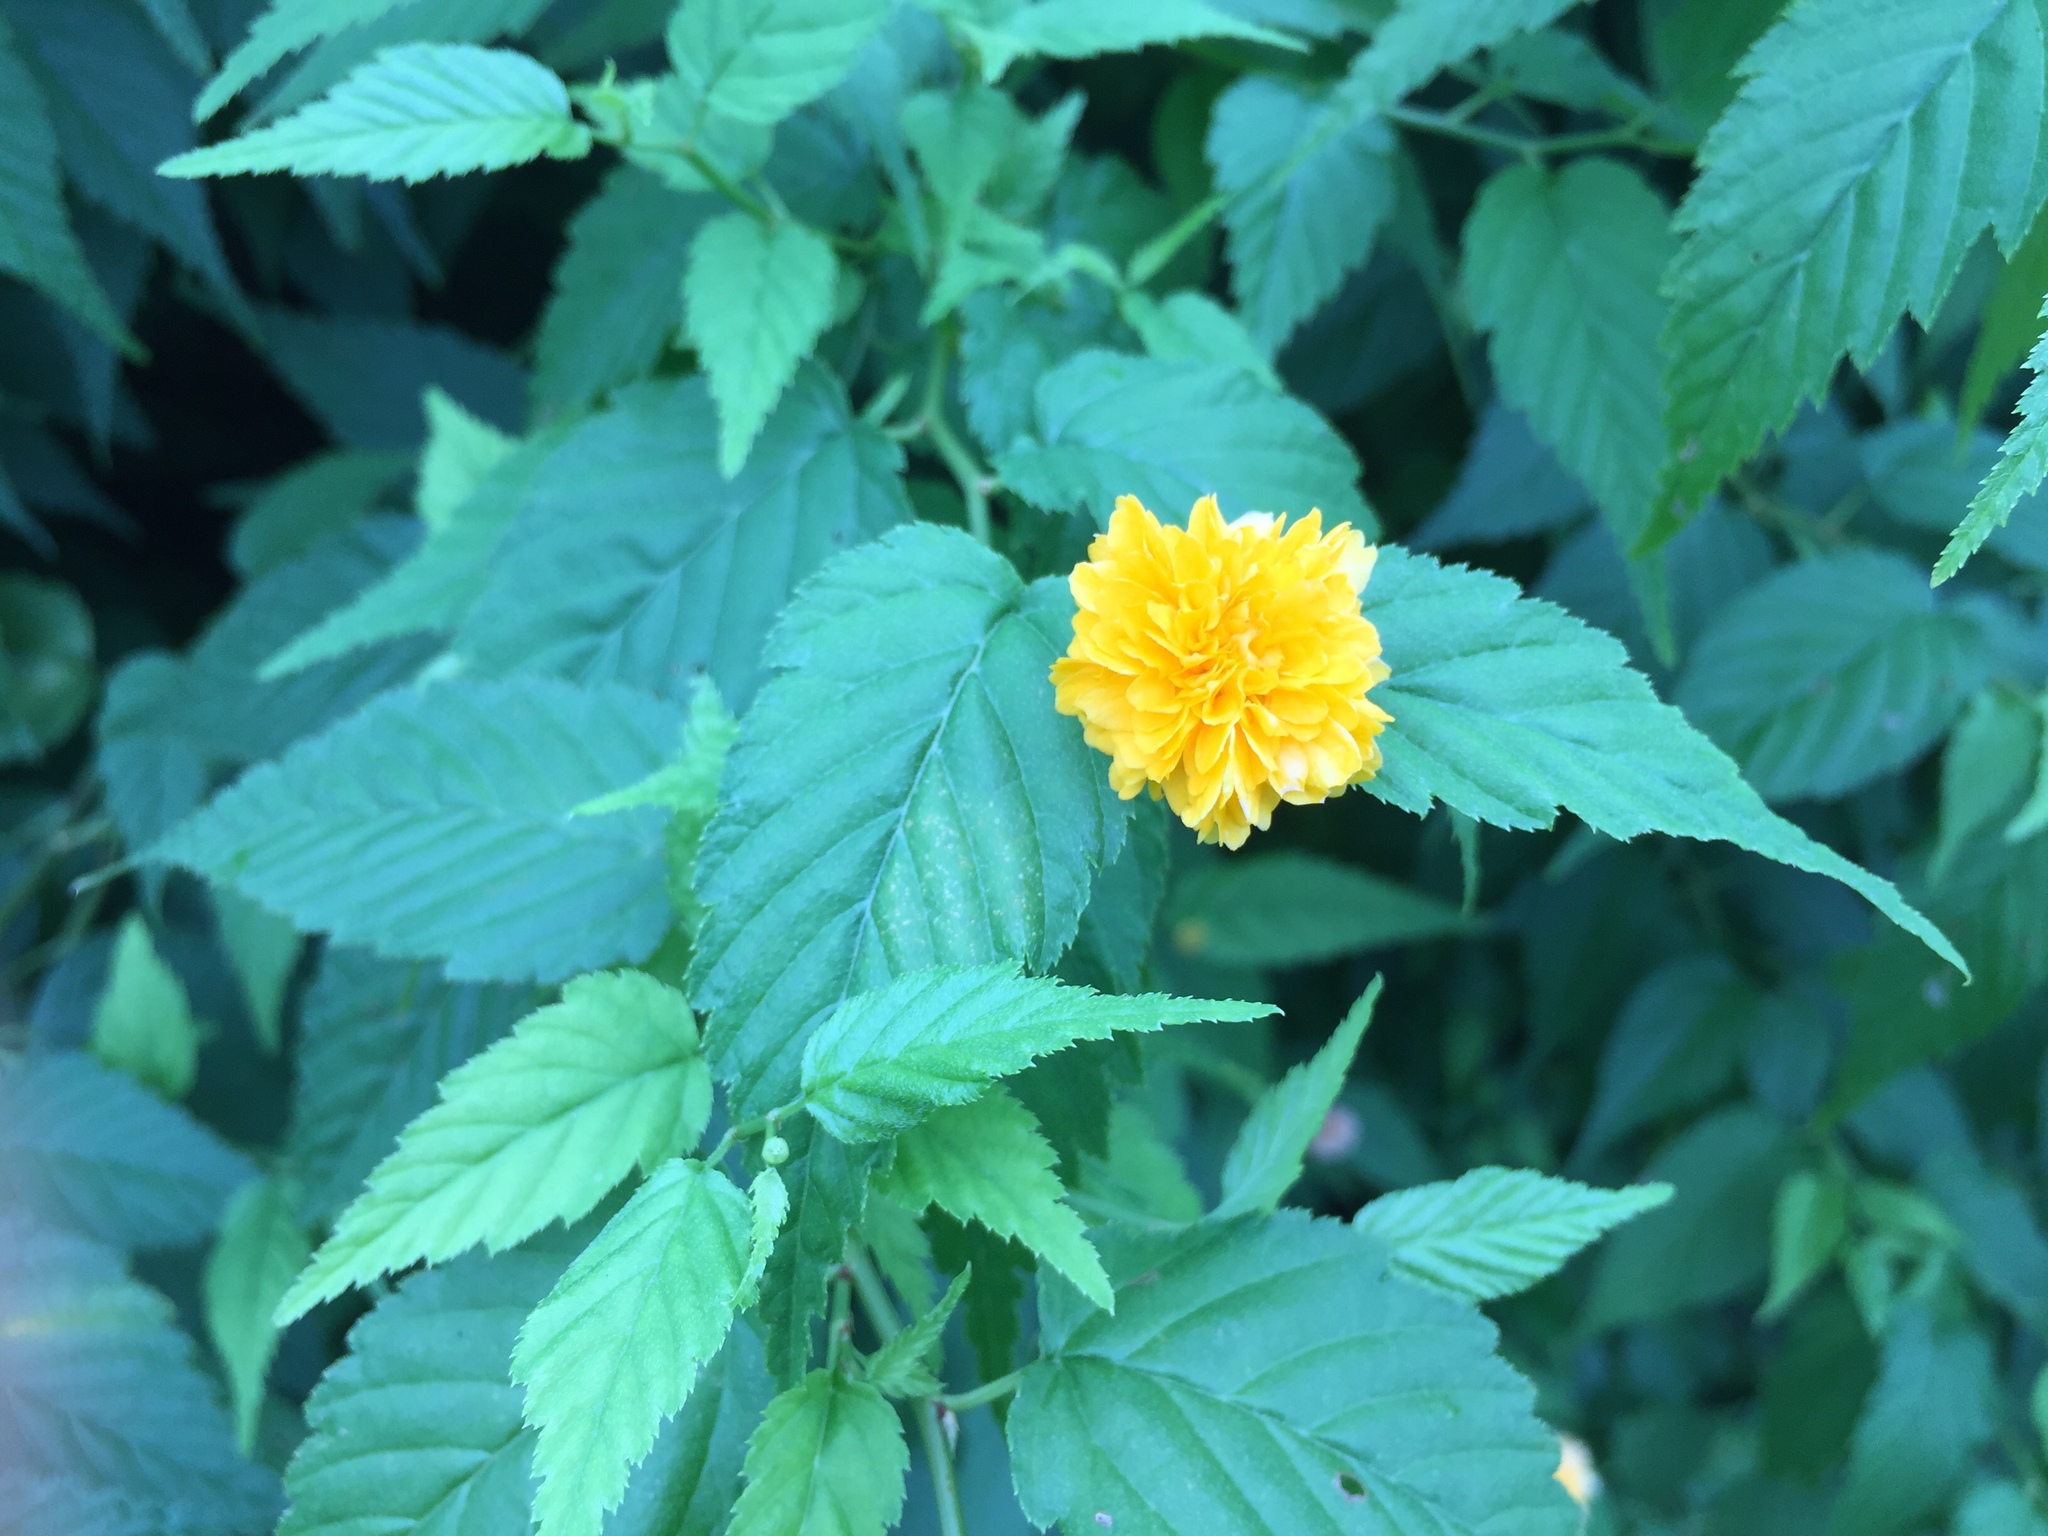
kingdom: Plantae
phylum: Tracheophyta
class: Magnoliopsida
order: Rosales
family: Rosaceae
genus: Kerria
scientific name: Kerria japonica
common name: Japanese kerria
